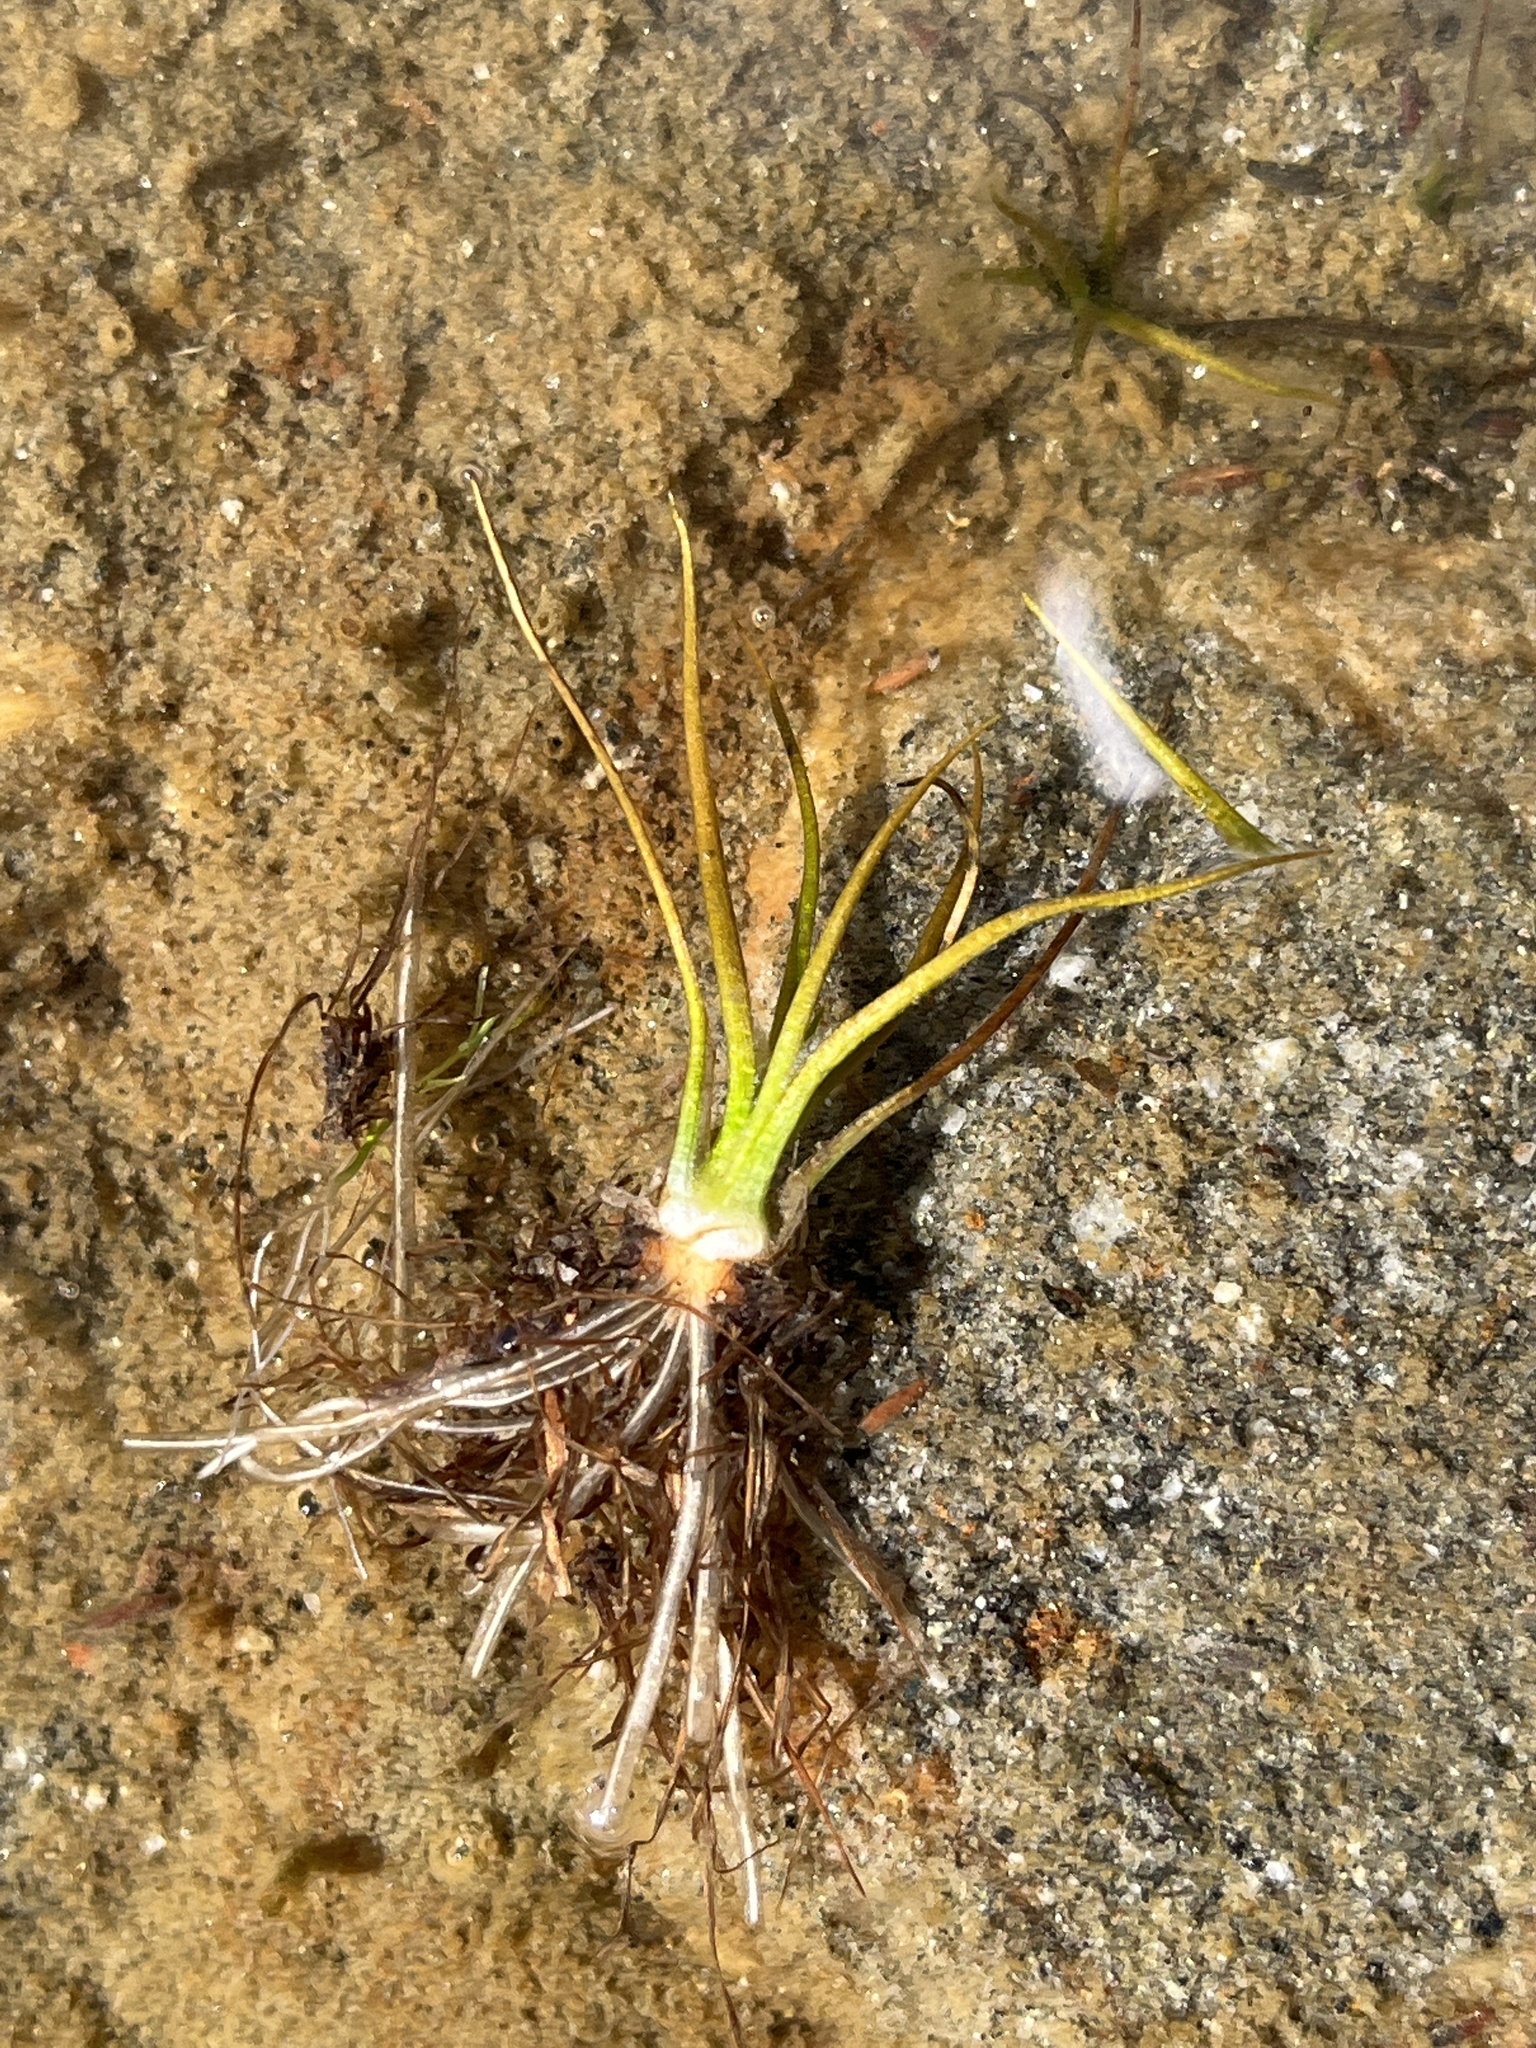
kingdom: Plantae
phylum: Tracheophyta
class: Lycopodiopsida
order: Isoetales
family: Isoetaceae
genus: Isoetes
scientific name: Isoetes echinospora
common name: Spring quillwort
